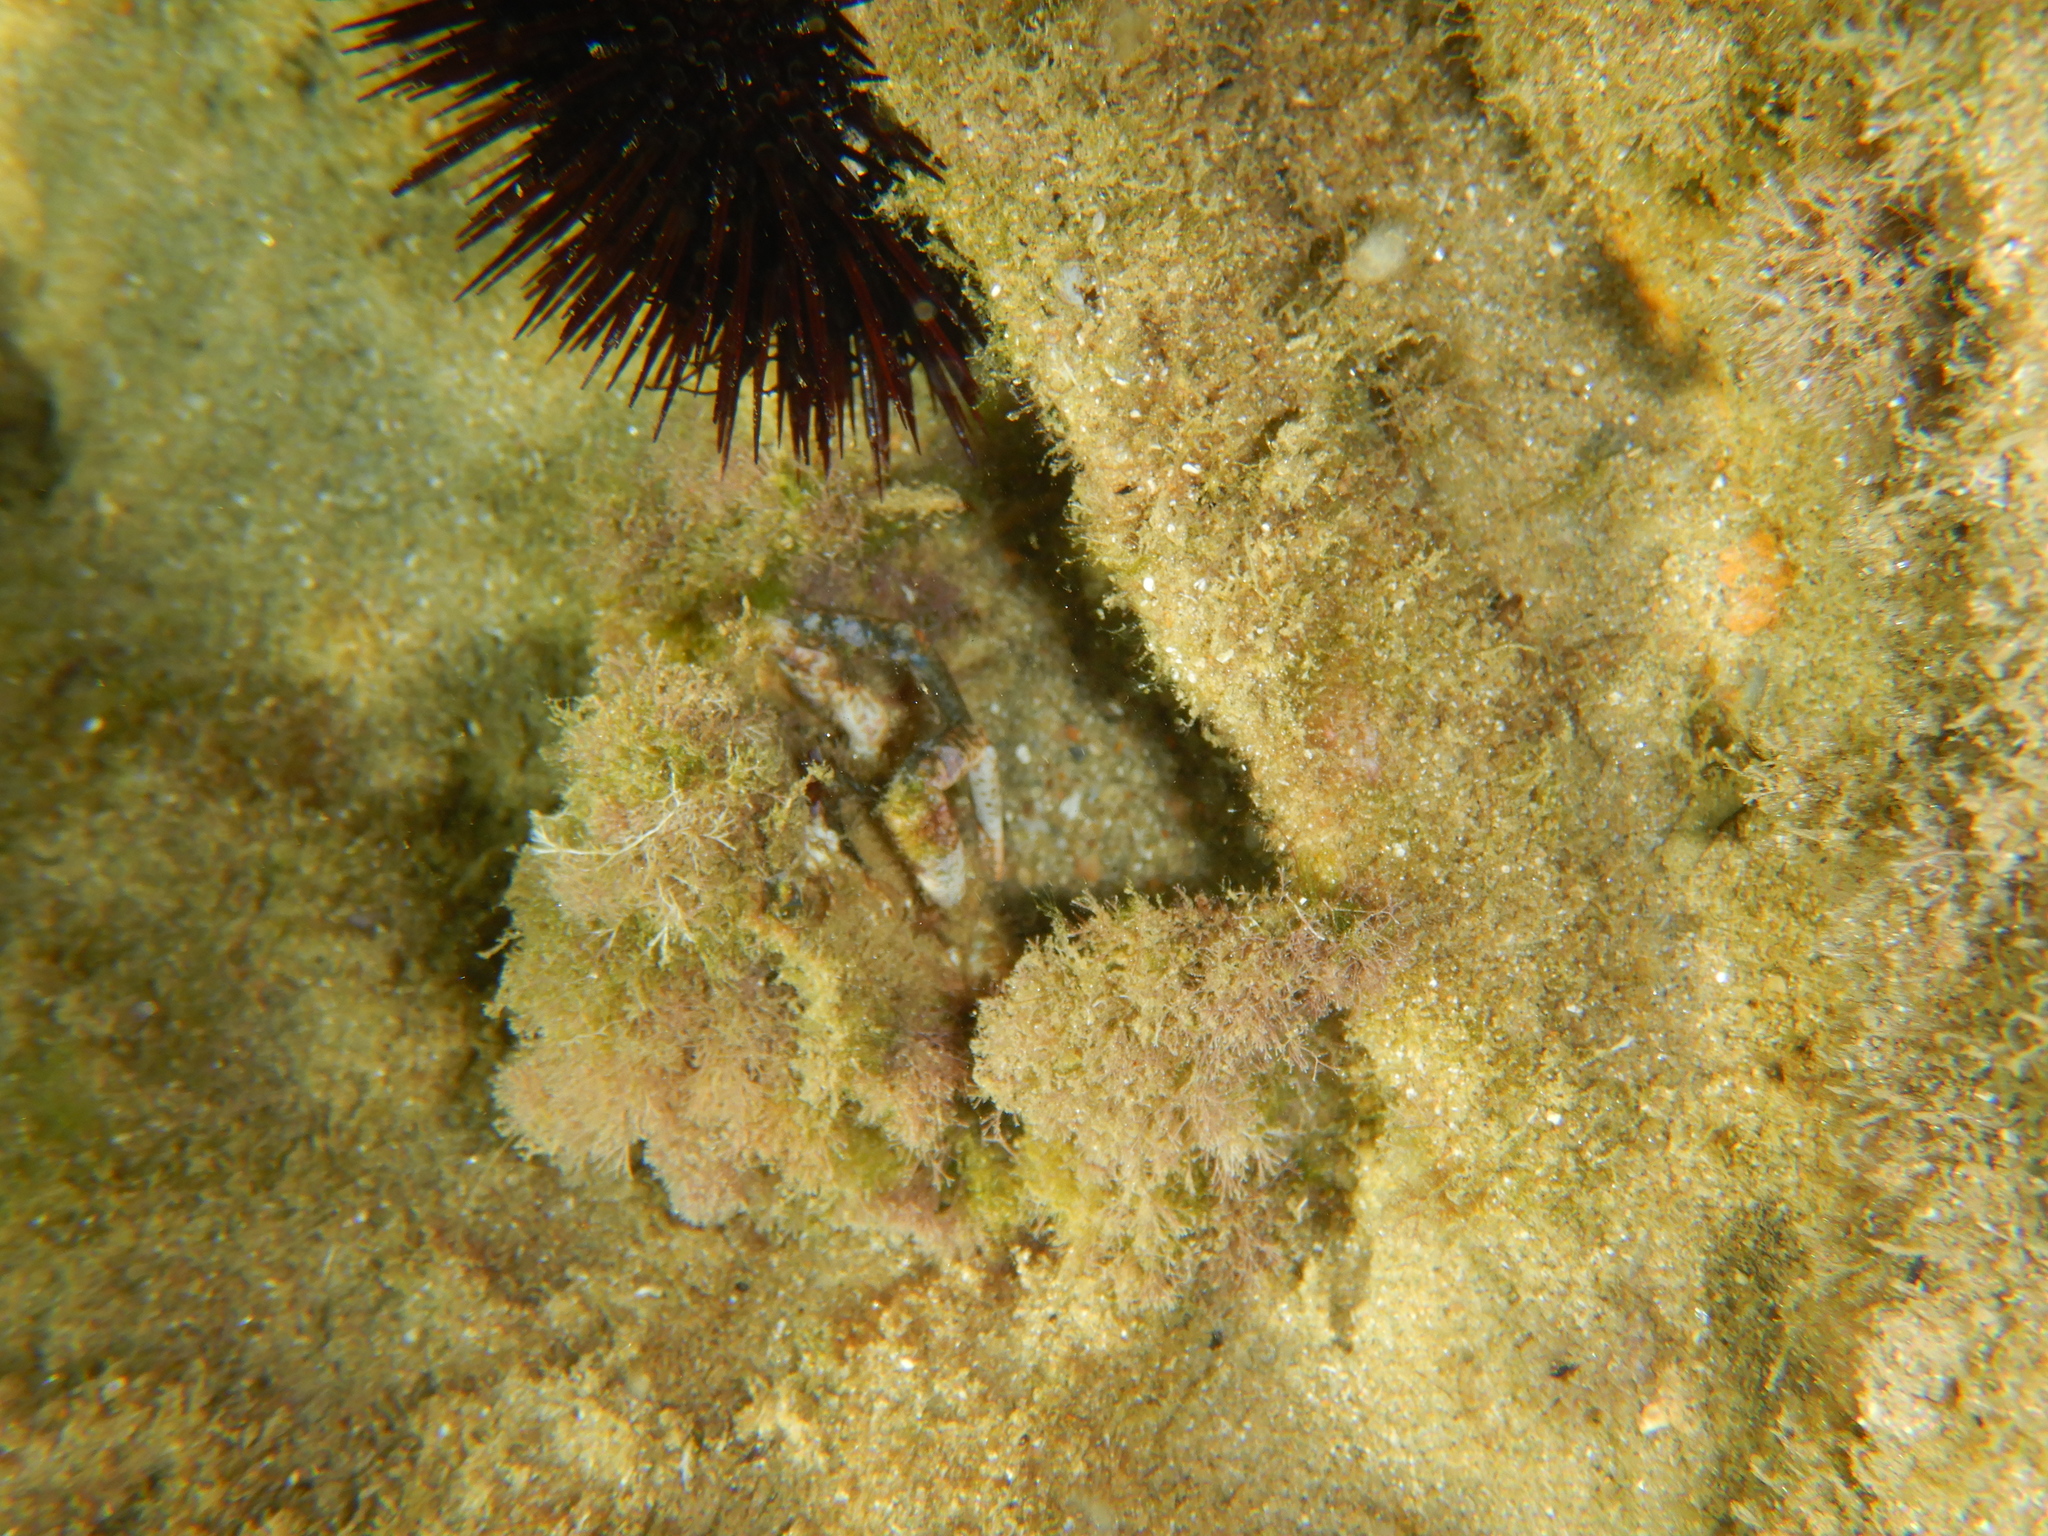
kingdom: Animalia
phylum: Arthropoda
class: Malacostraca
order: Decapoda
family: Majidae
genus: Maja
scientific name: Maja crispata
